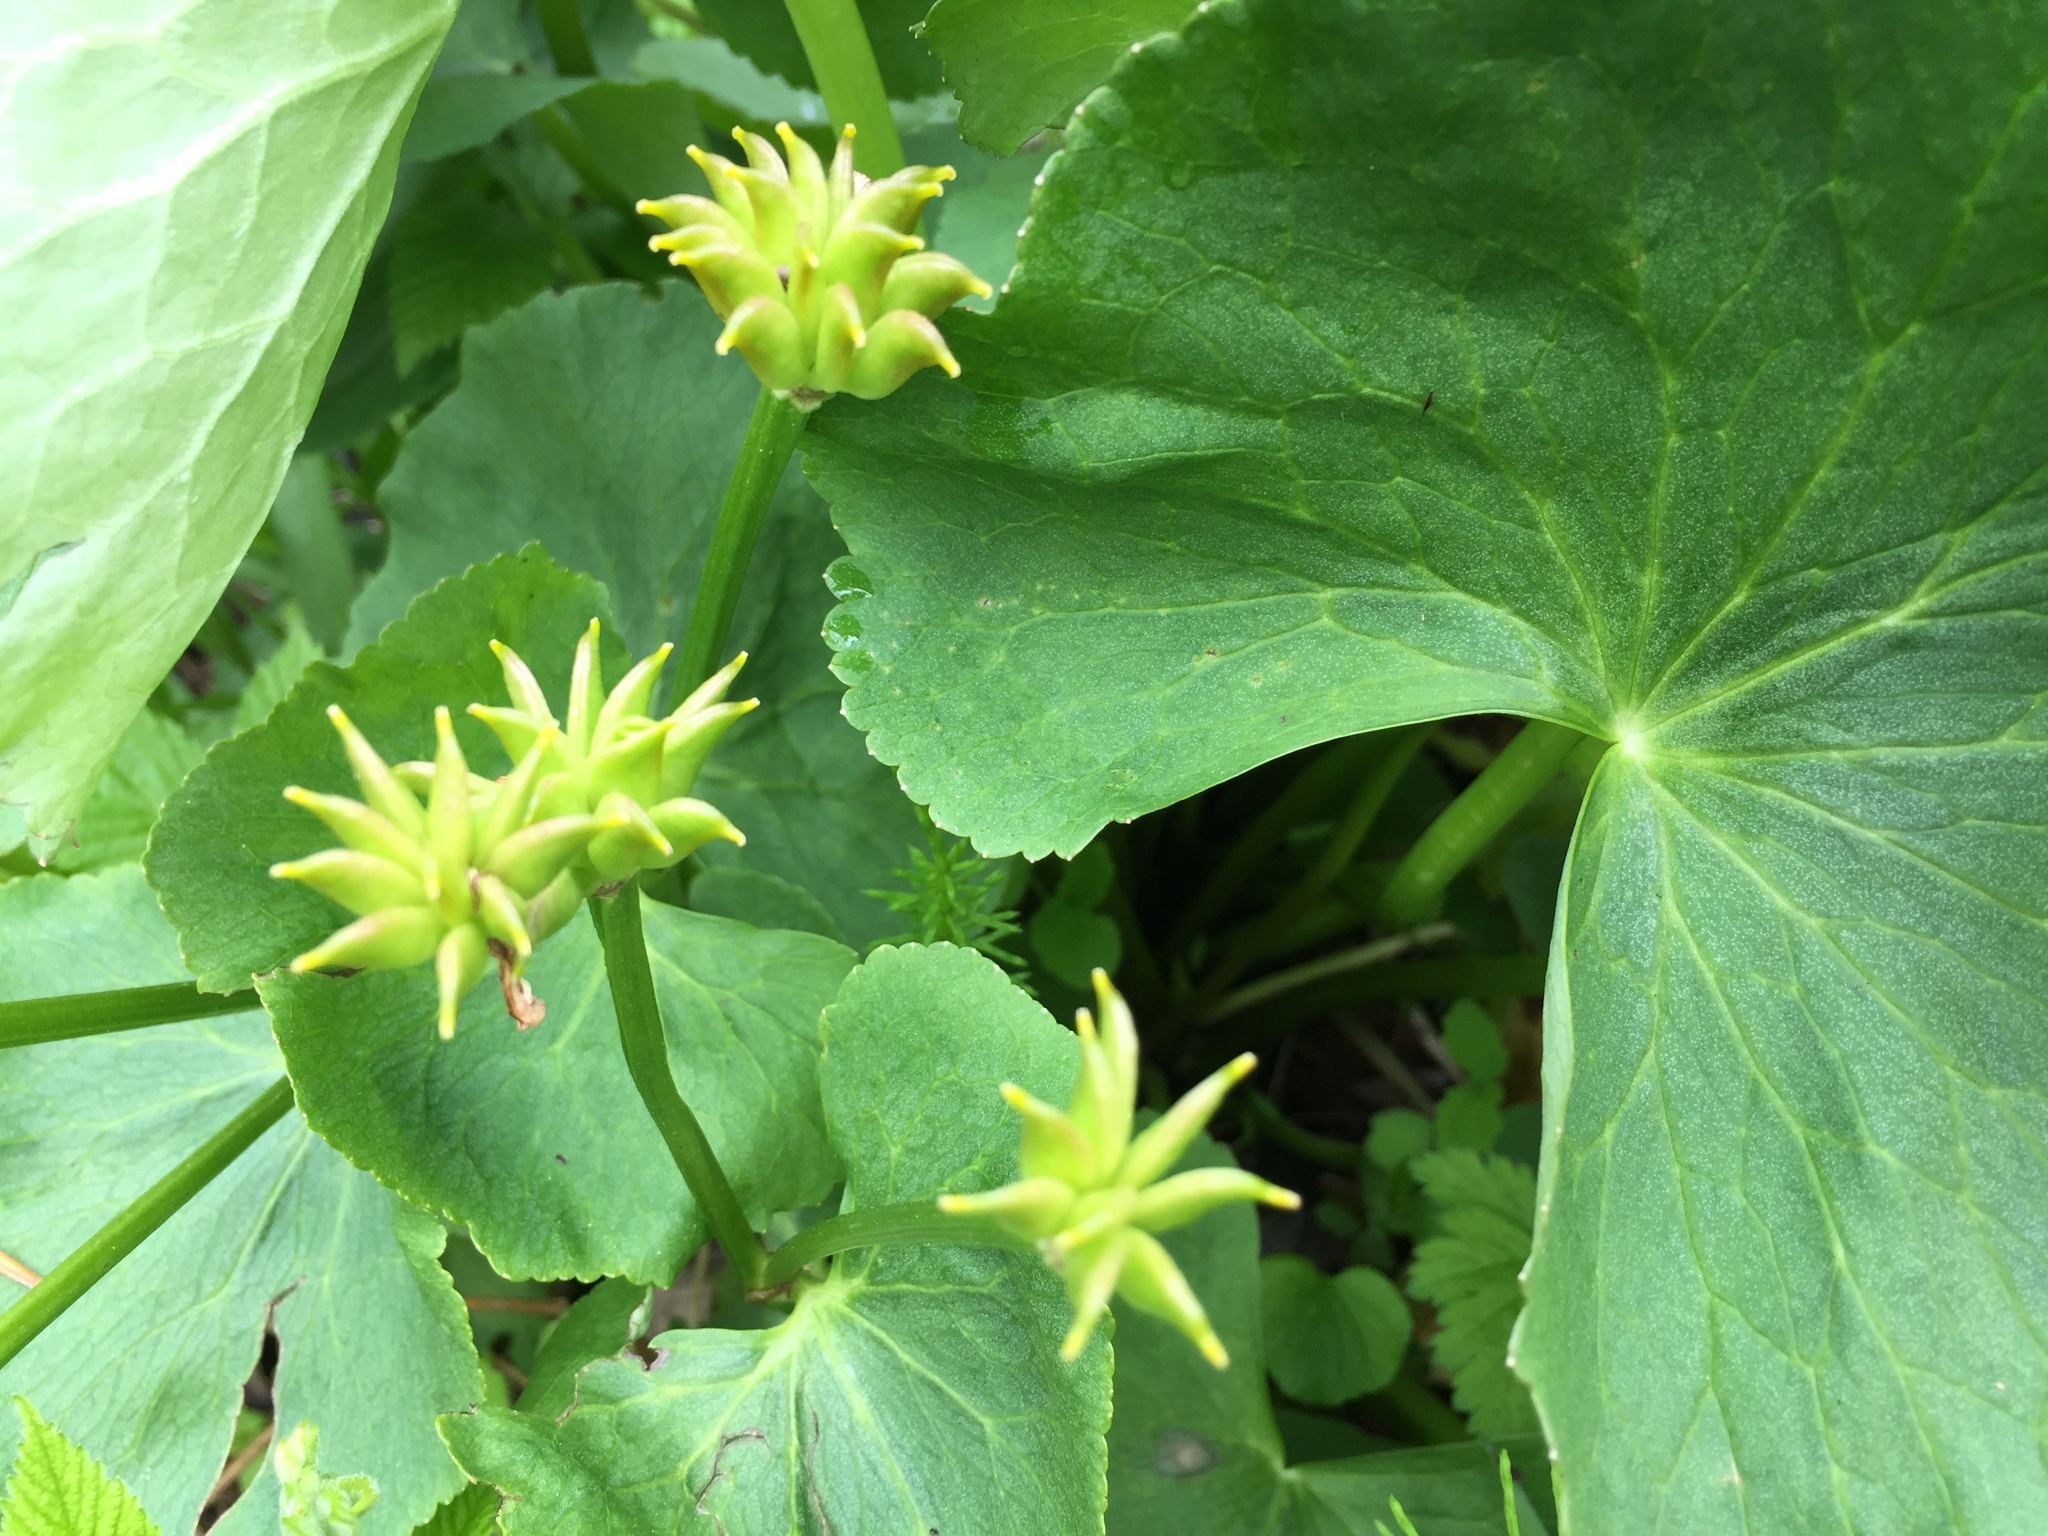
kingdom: Plantae
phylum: Tracheophyta
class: Magnoliopsida
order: Ranunculales
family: Ranunculaceae
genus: Caltha
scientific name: Caltha palustris
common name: Marsh marigold
